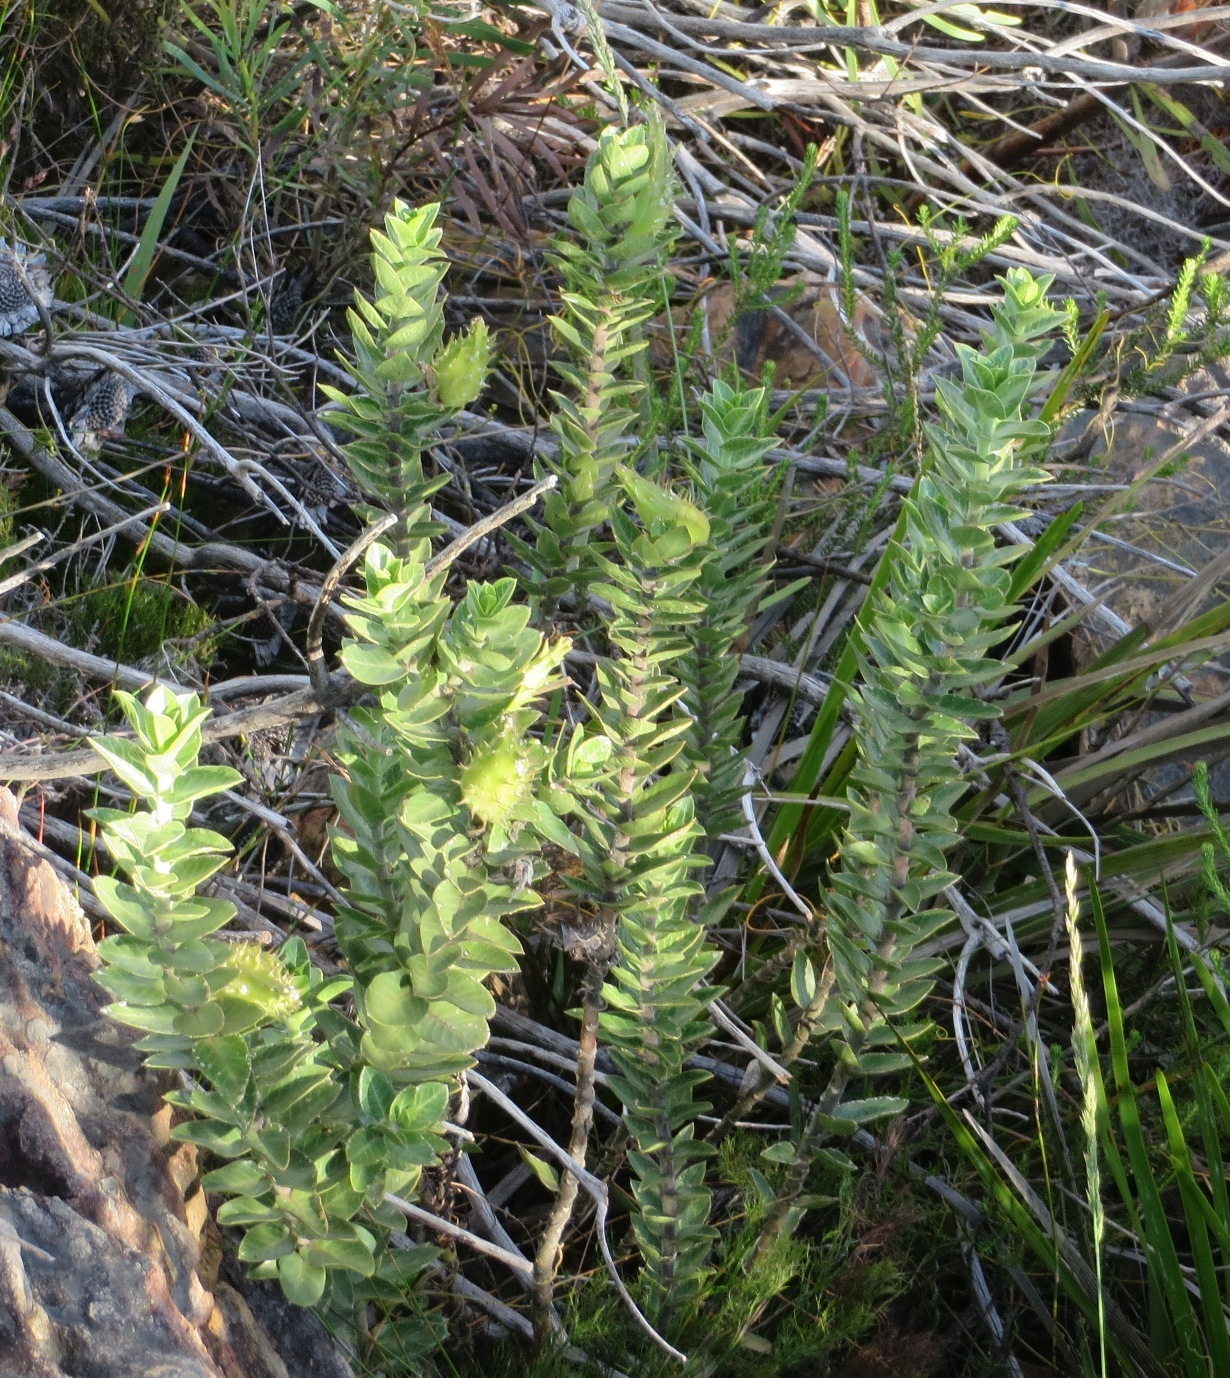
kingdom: Plantae
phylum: Tracheophyta
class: Magnoliopsida
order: Gentianales
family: Apocynaceae
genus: Gomphocarpus
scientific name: Gomphocarpus cancellatus
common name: Wild cotton
